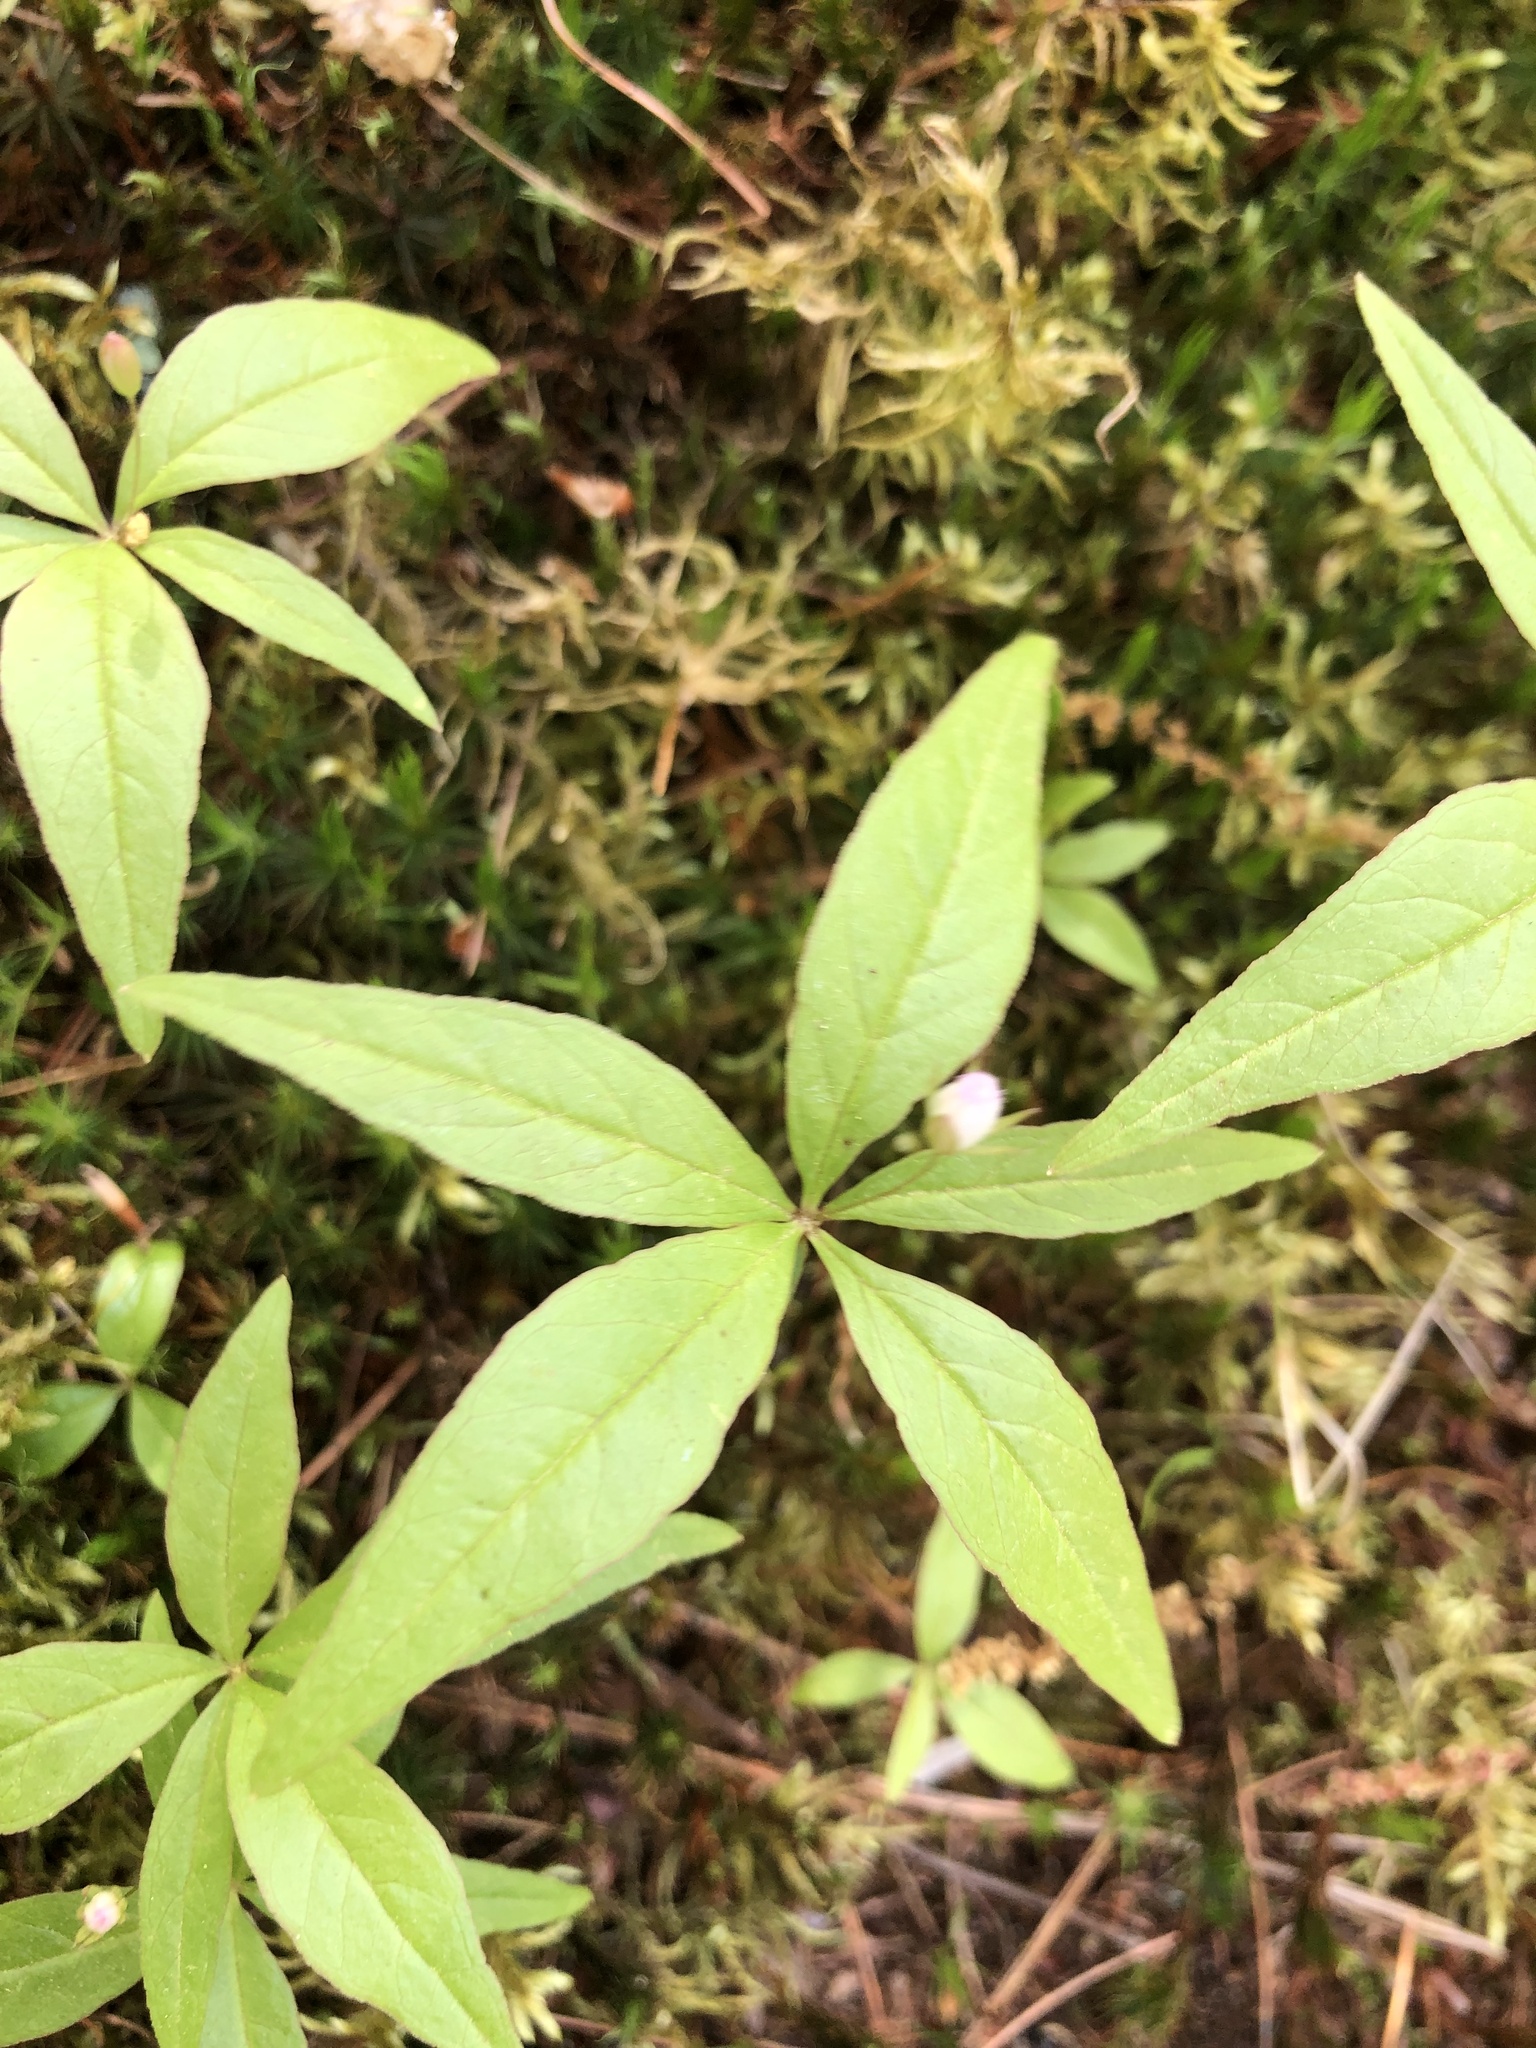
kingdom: Plantae
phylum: Tracheophyta
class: Magnoliopsida
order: Ericales
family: Primulaceae
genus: Lysimachia
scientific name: Lysimachia borealis
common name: American starflower
